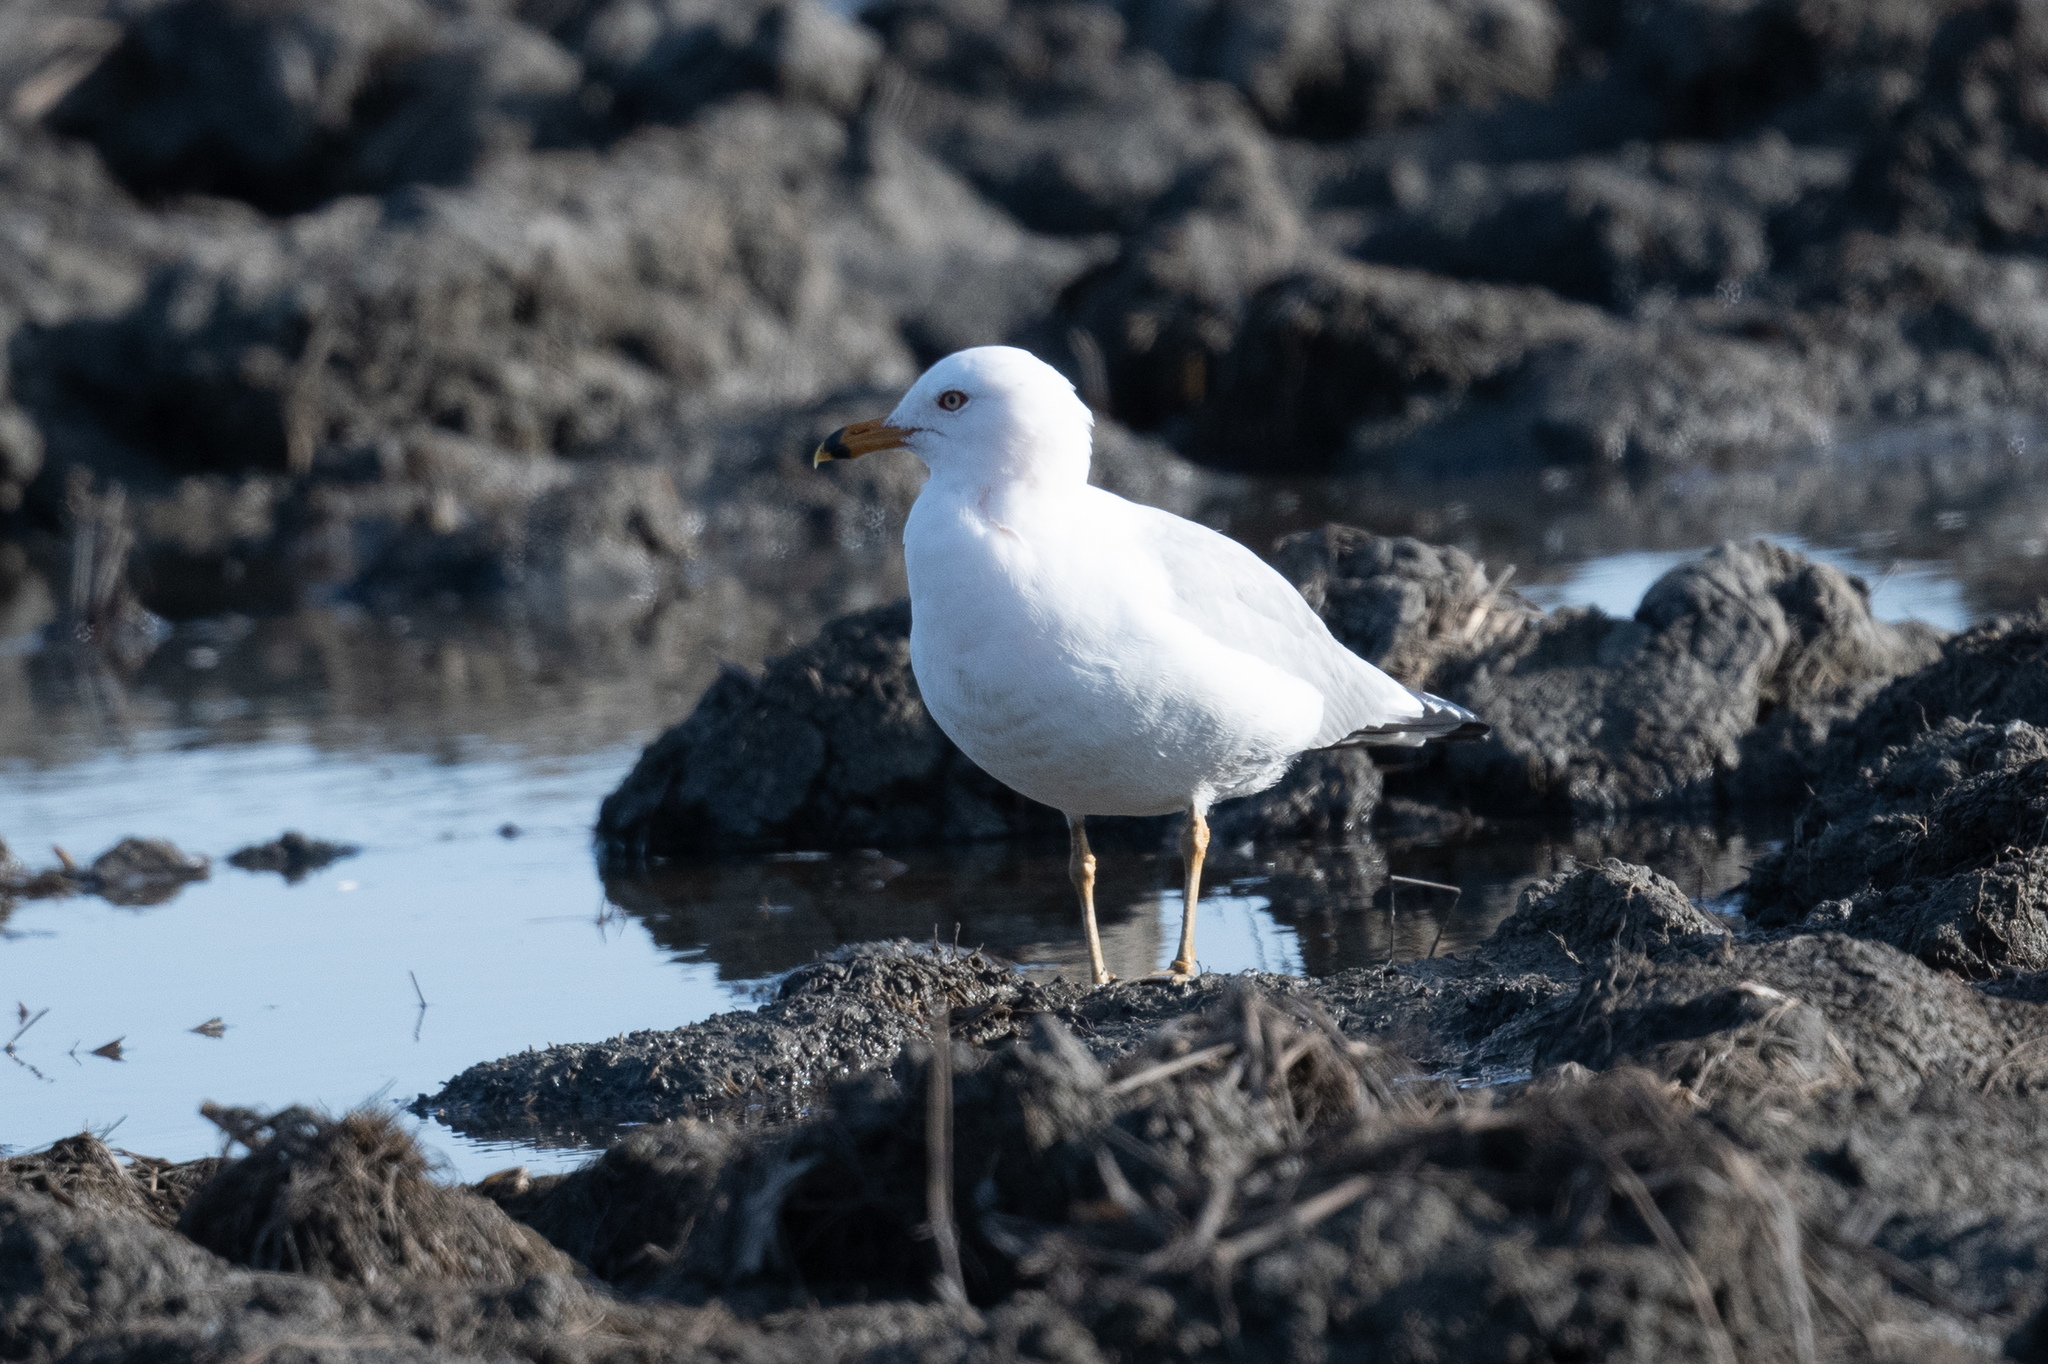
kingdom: Animalia
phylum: Chordata
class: Aves
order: Charadriiformes
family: Laridae
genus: Larus
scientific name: Larus delawarensis
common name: Ring-billed gull
